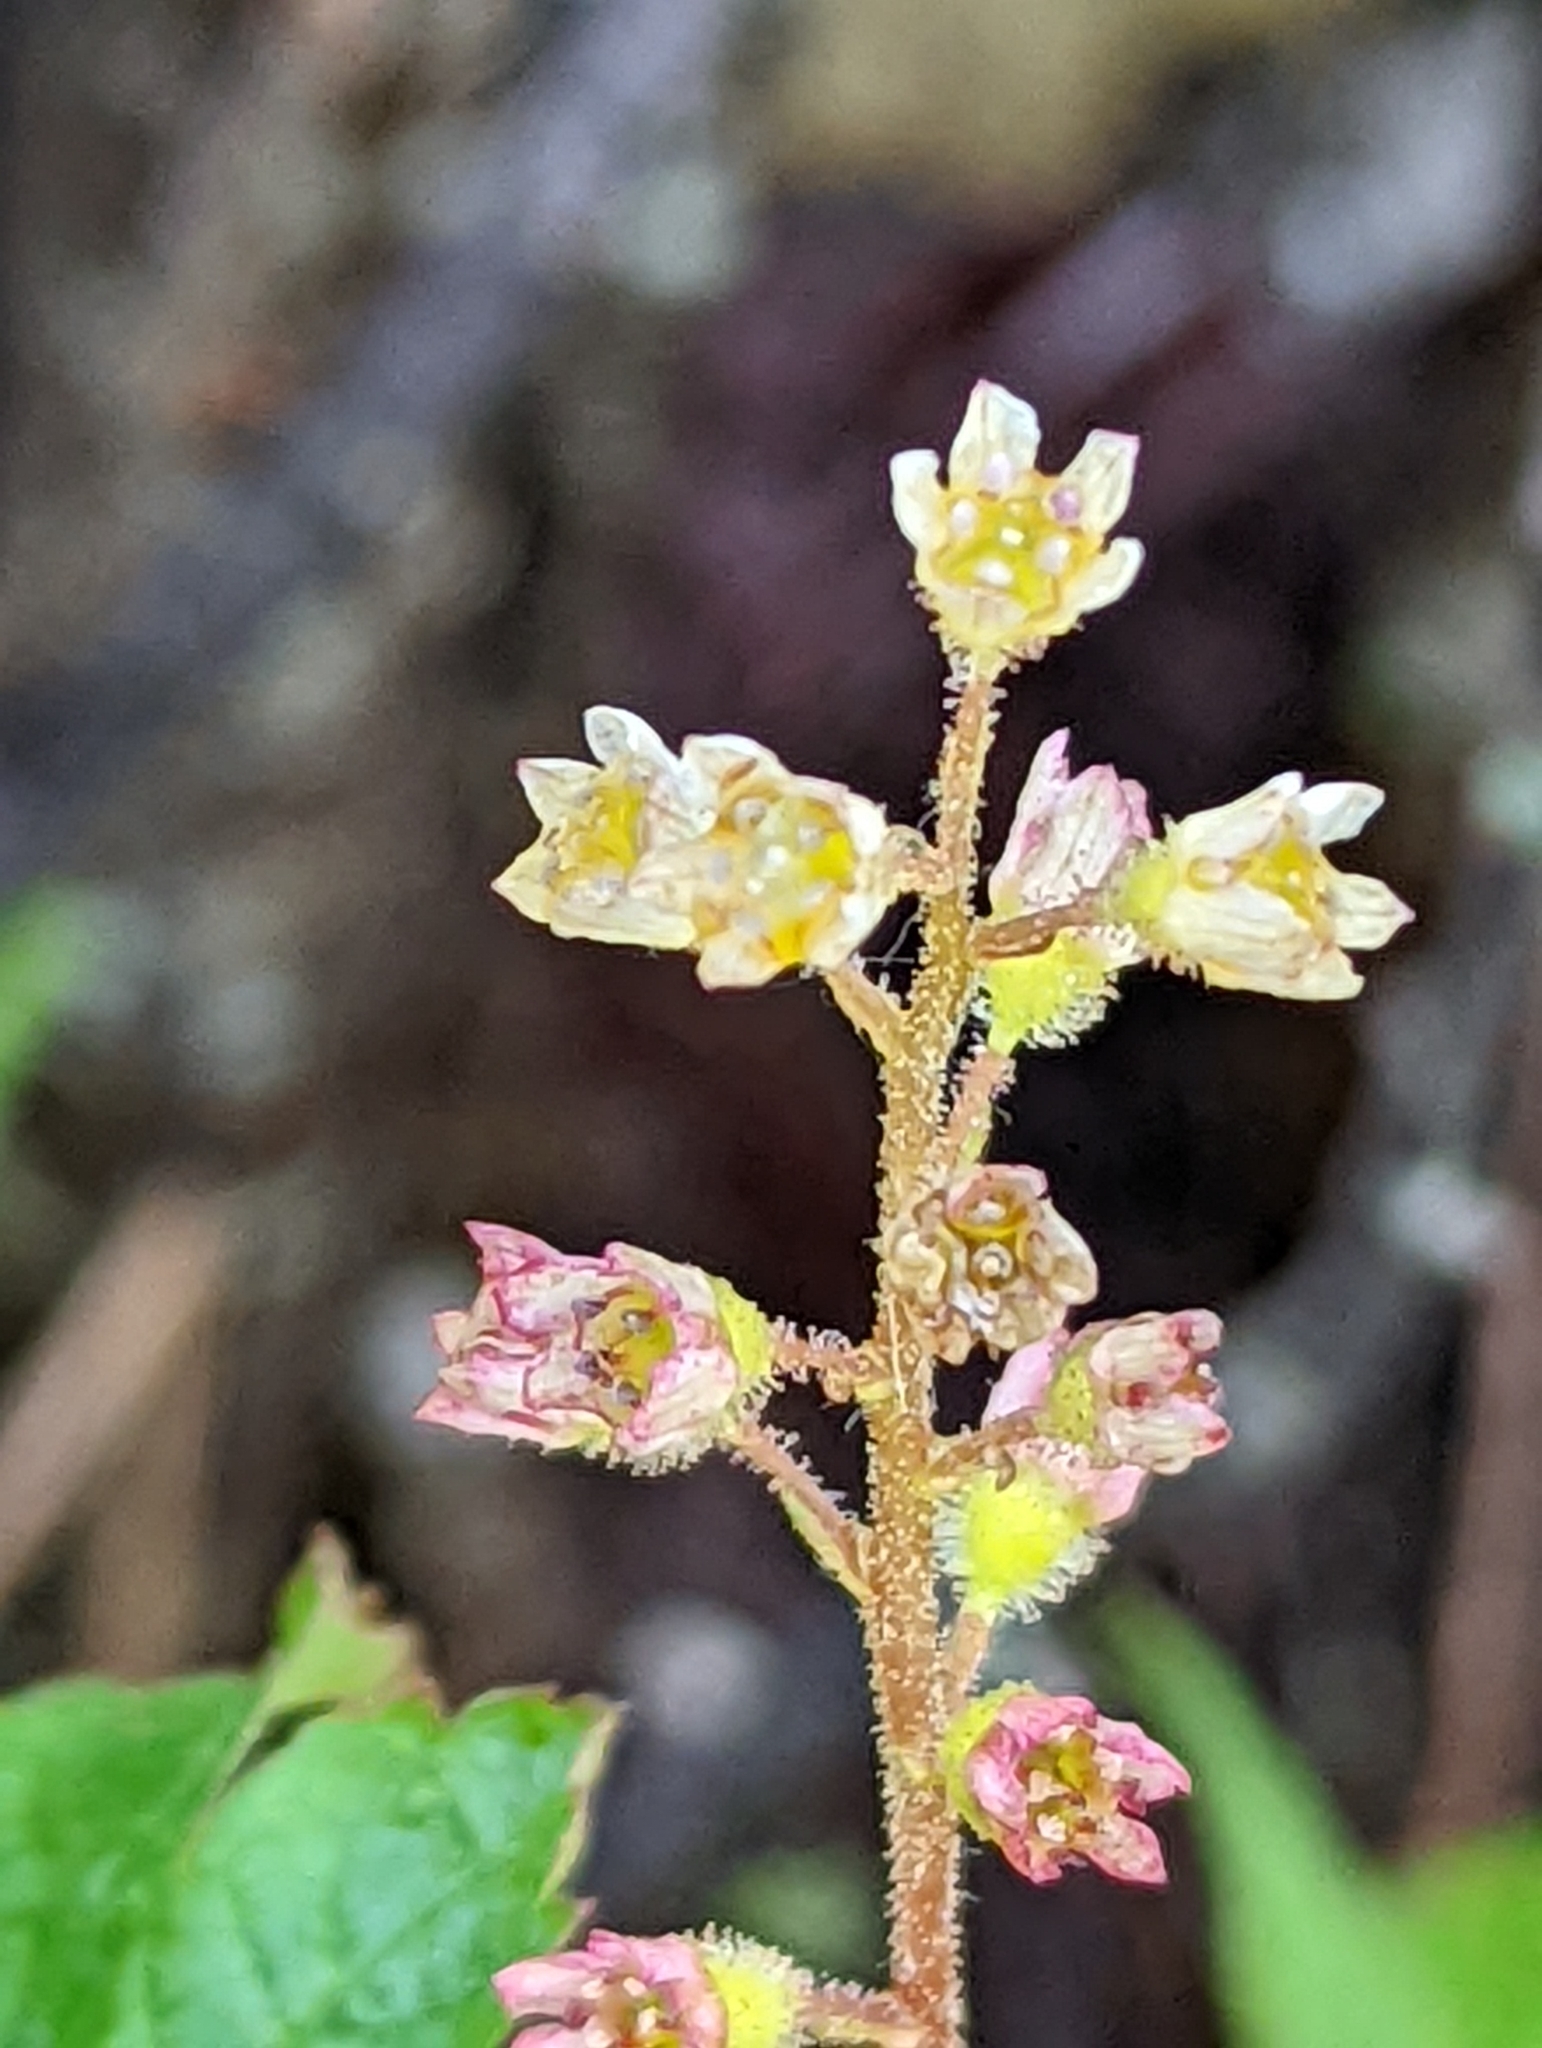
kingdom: Plantae
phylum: Tracheophyta
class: Magnoliopsida
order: Saxifragales
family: Grossulariaceae
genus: Ribes
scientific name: Ribes glandulosum
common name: Skunk currant
